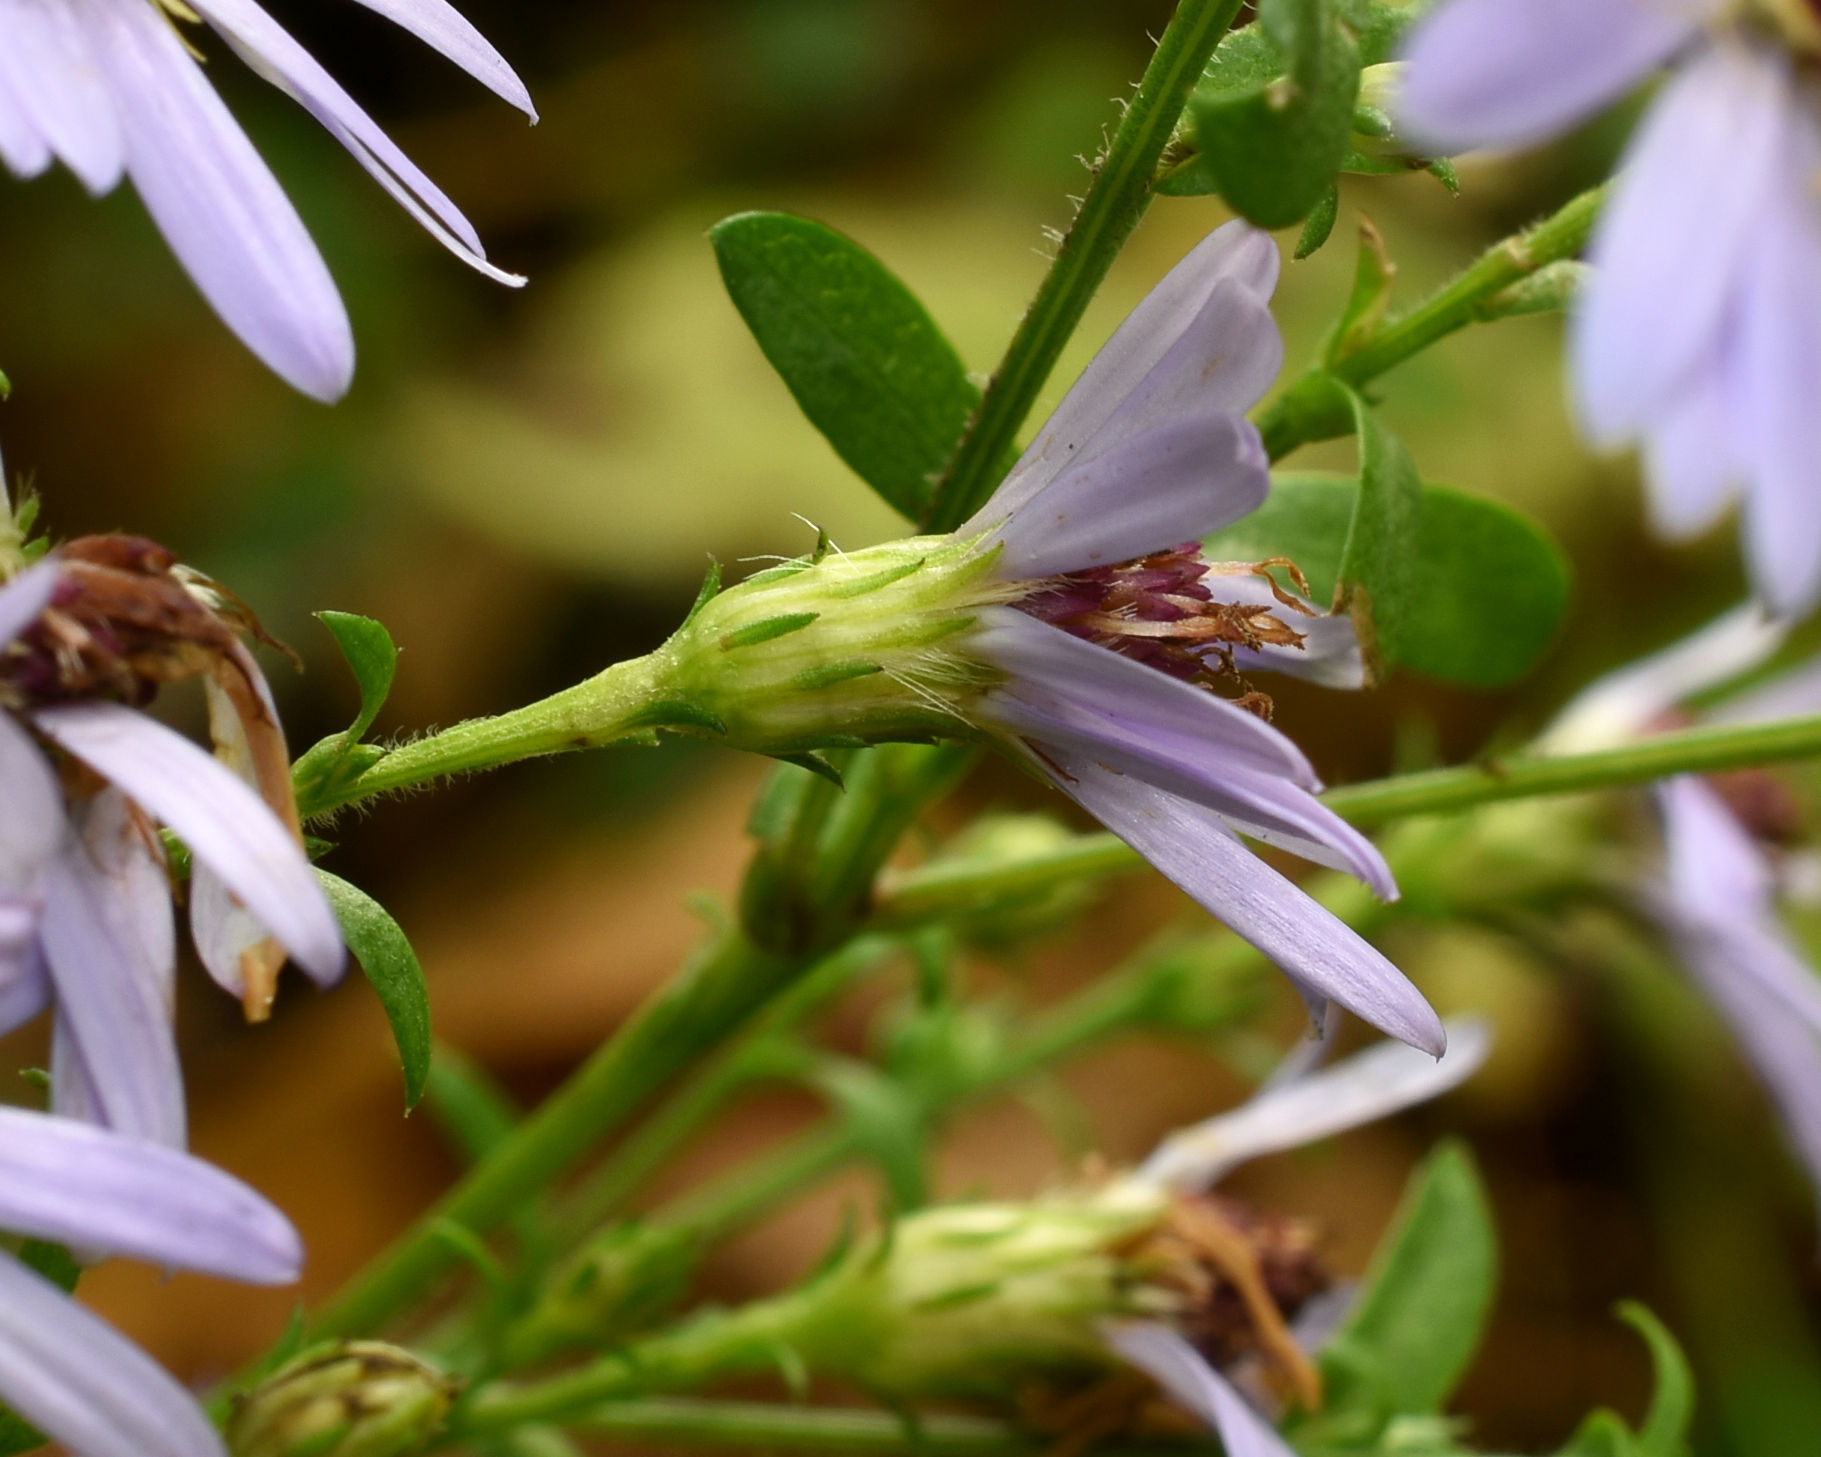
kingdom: Plantae
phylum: Tracheophyta
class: Magnoliopsida
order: Asterales
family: Asteraceae
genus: Symphyotrichum
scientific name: Symphyotrichum urophyllum
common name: Arrow-leaved aster
